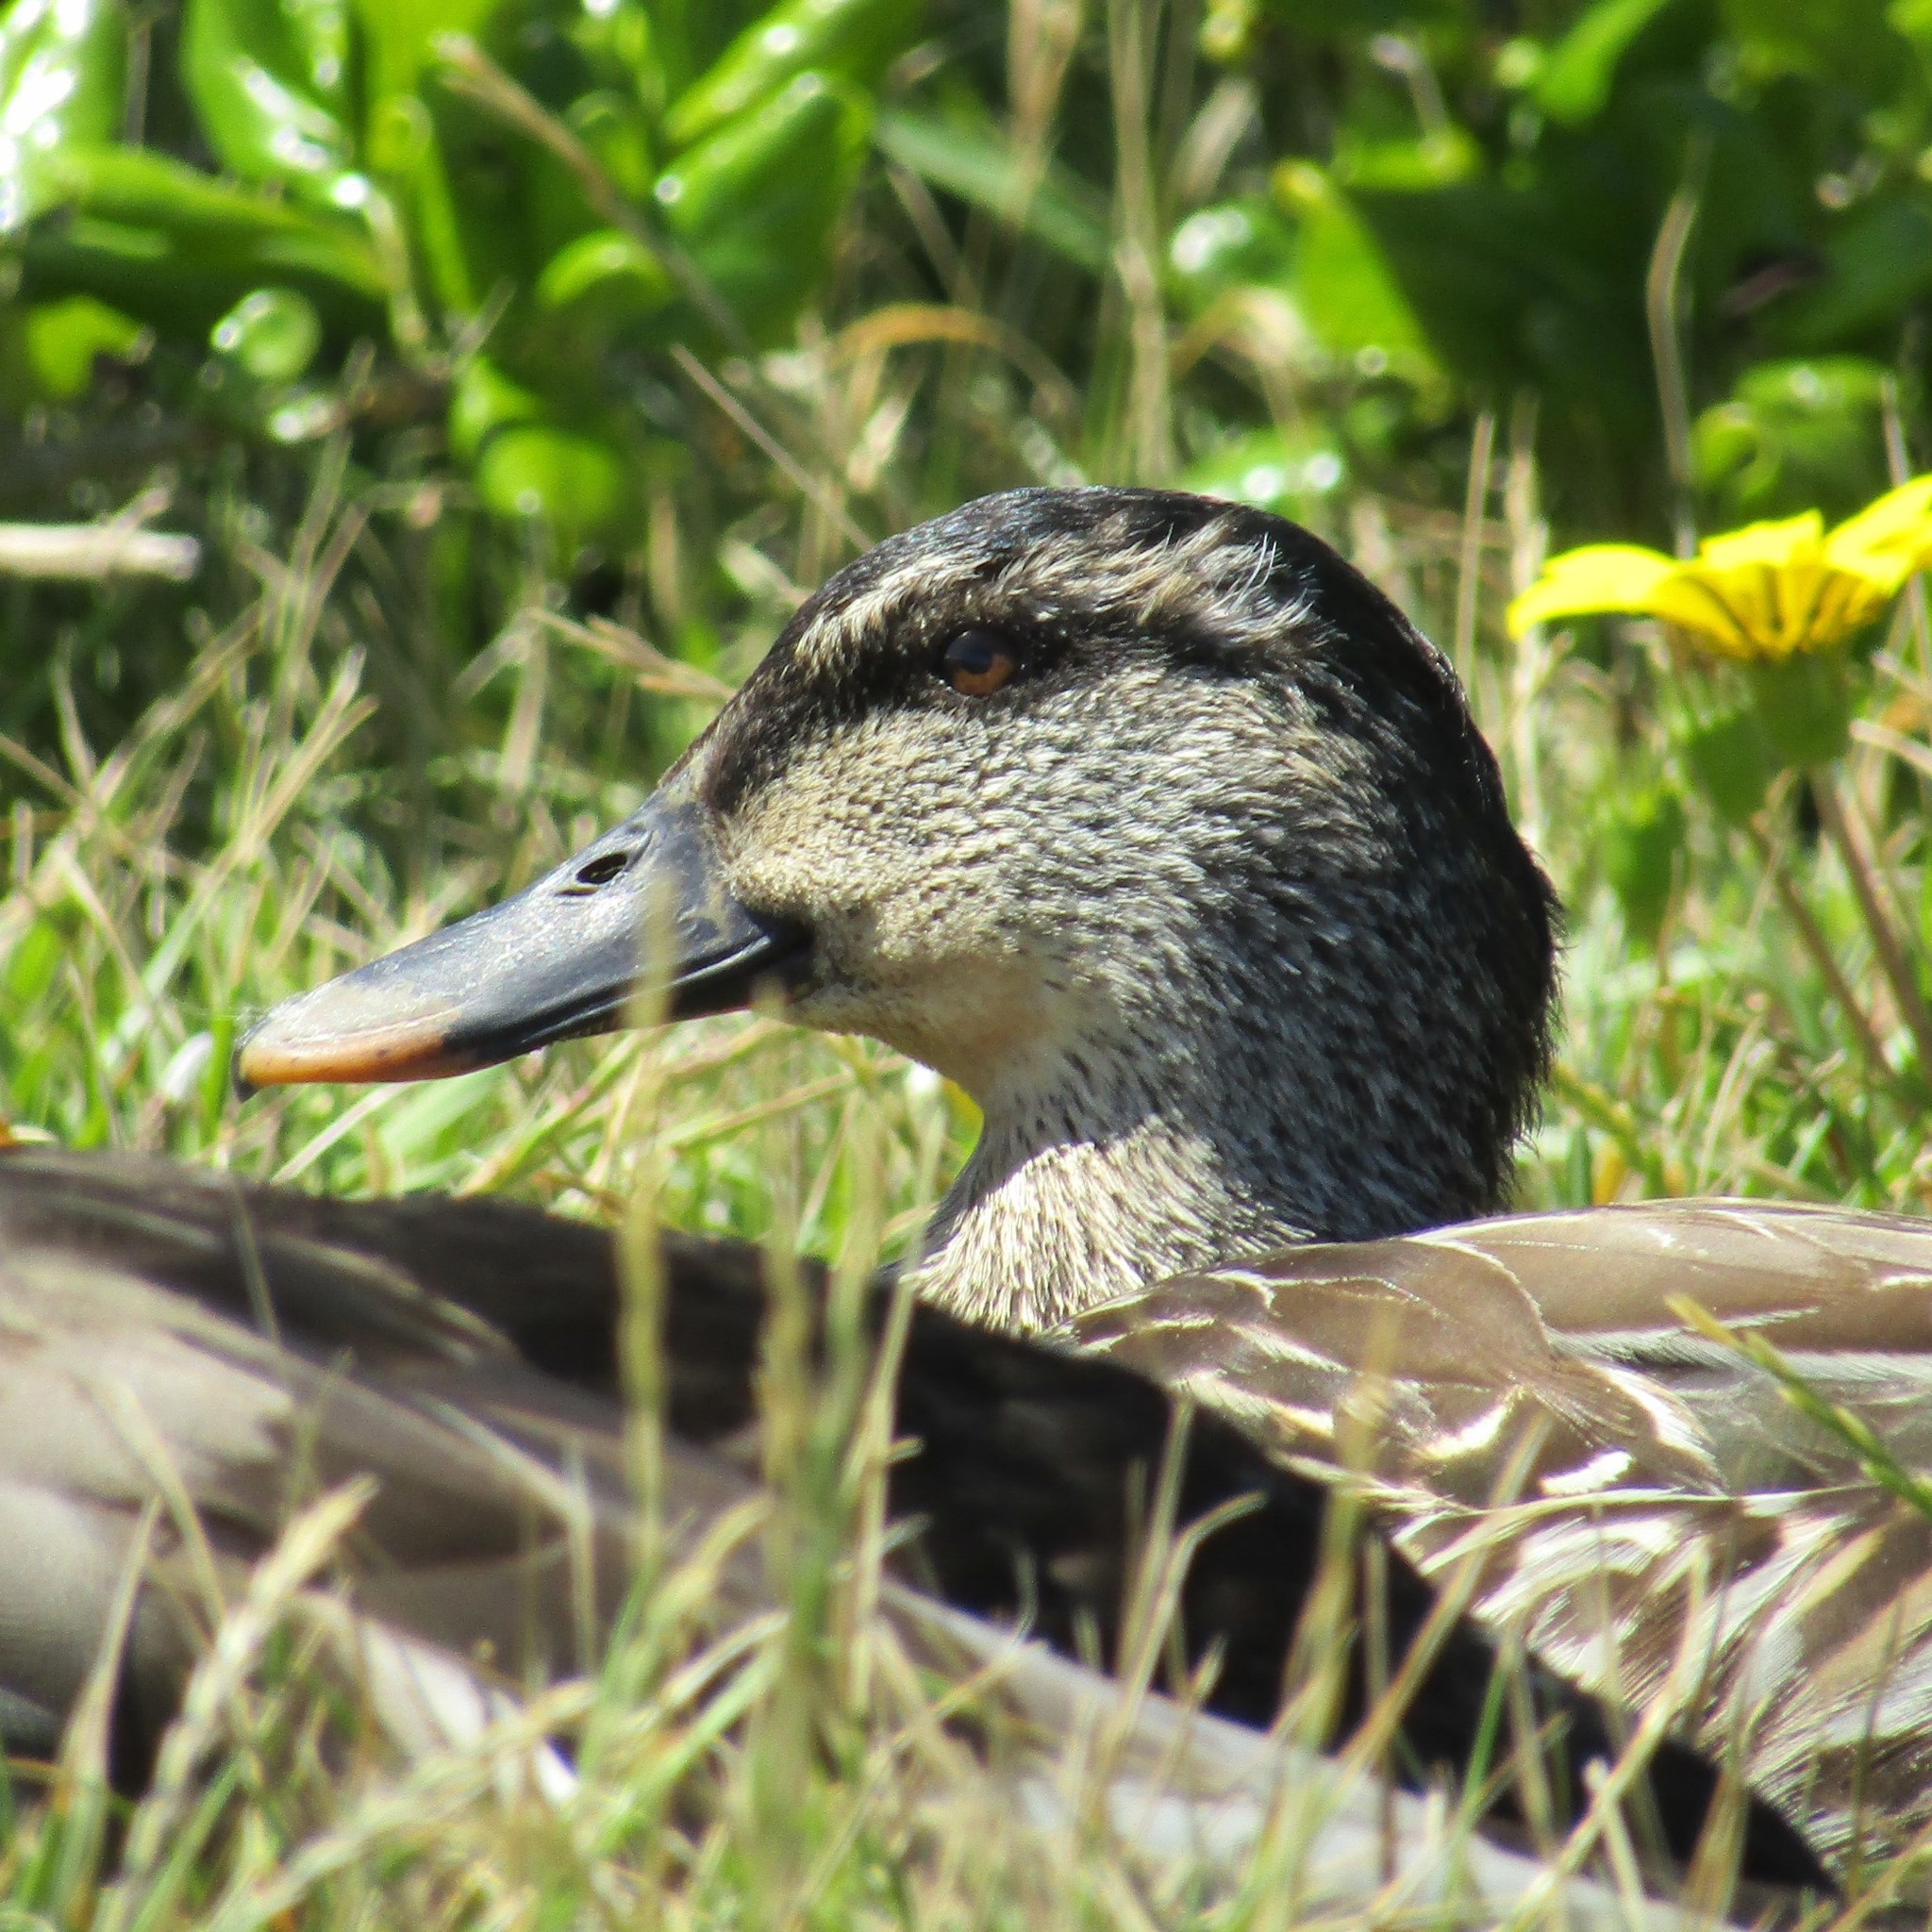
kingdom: Animalia
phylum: Chordata
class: Aves
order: Anseriformes
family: Anatidae
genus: Anas
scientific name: Anas
